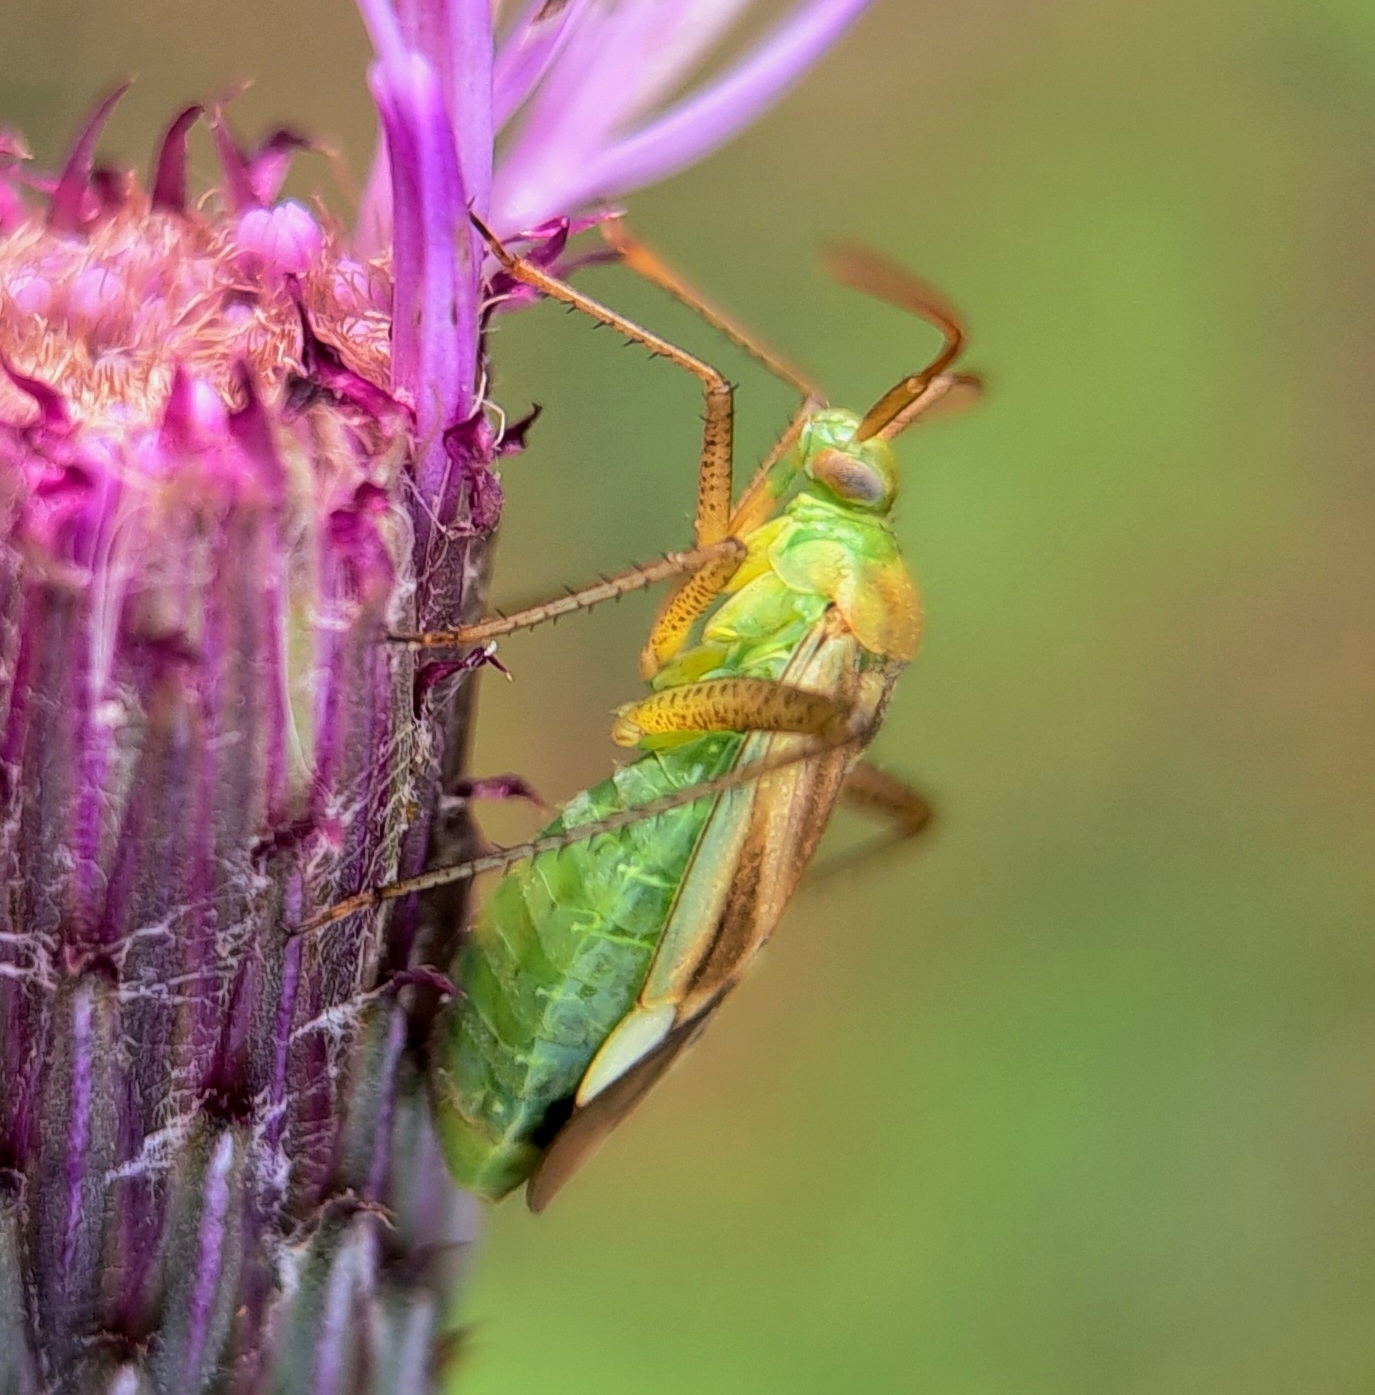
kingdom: Animalia
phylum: Arthropoda
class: Insecta
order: Hemiptera
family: Miridae
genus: Adelphocoris
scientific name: Adelphocoris lineolatus
